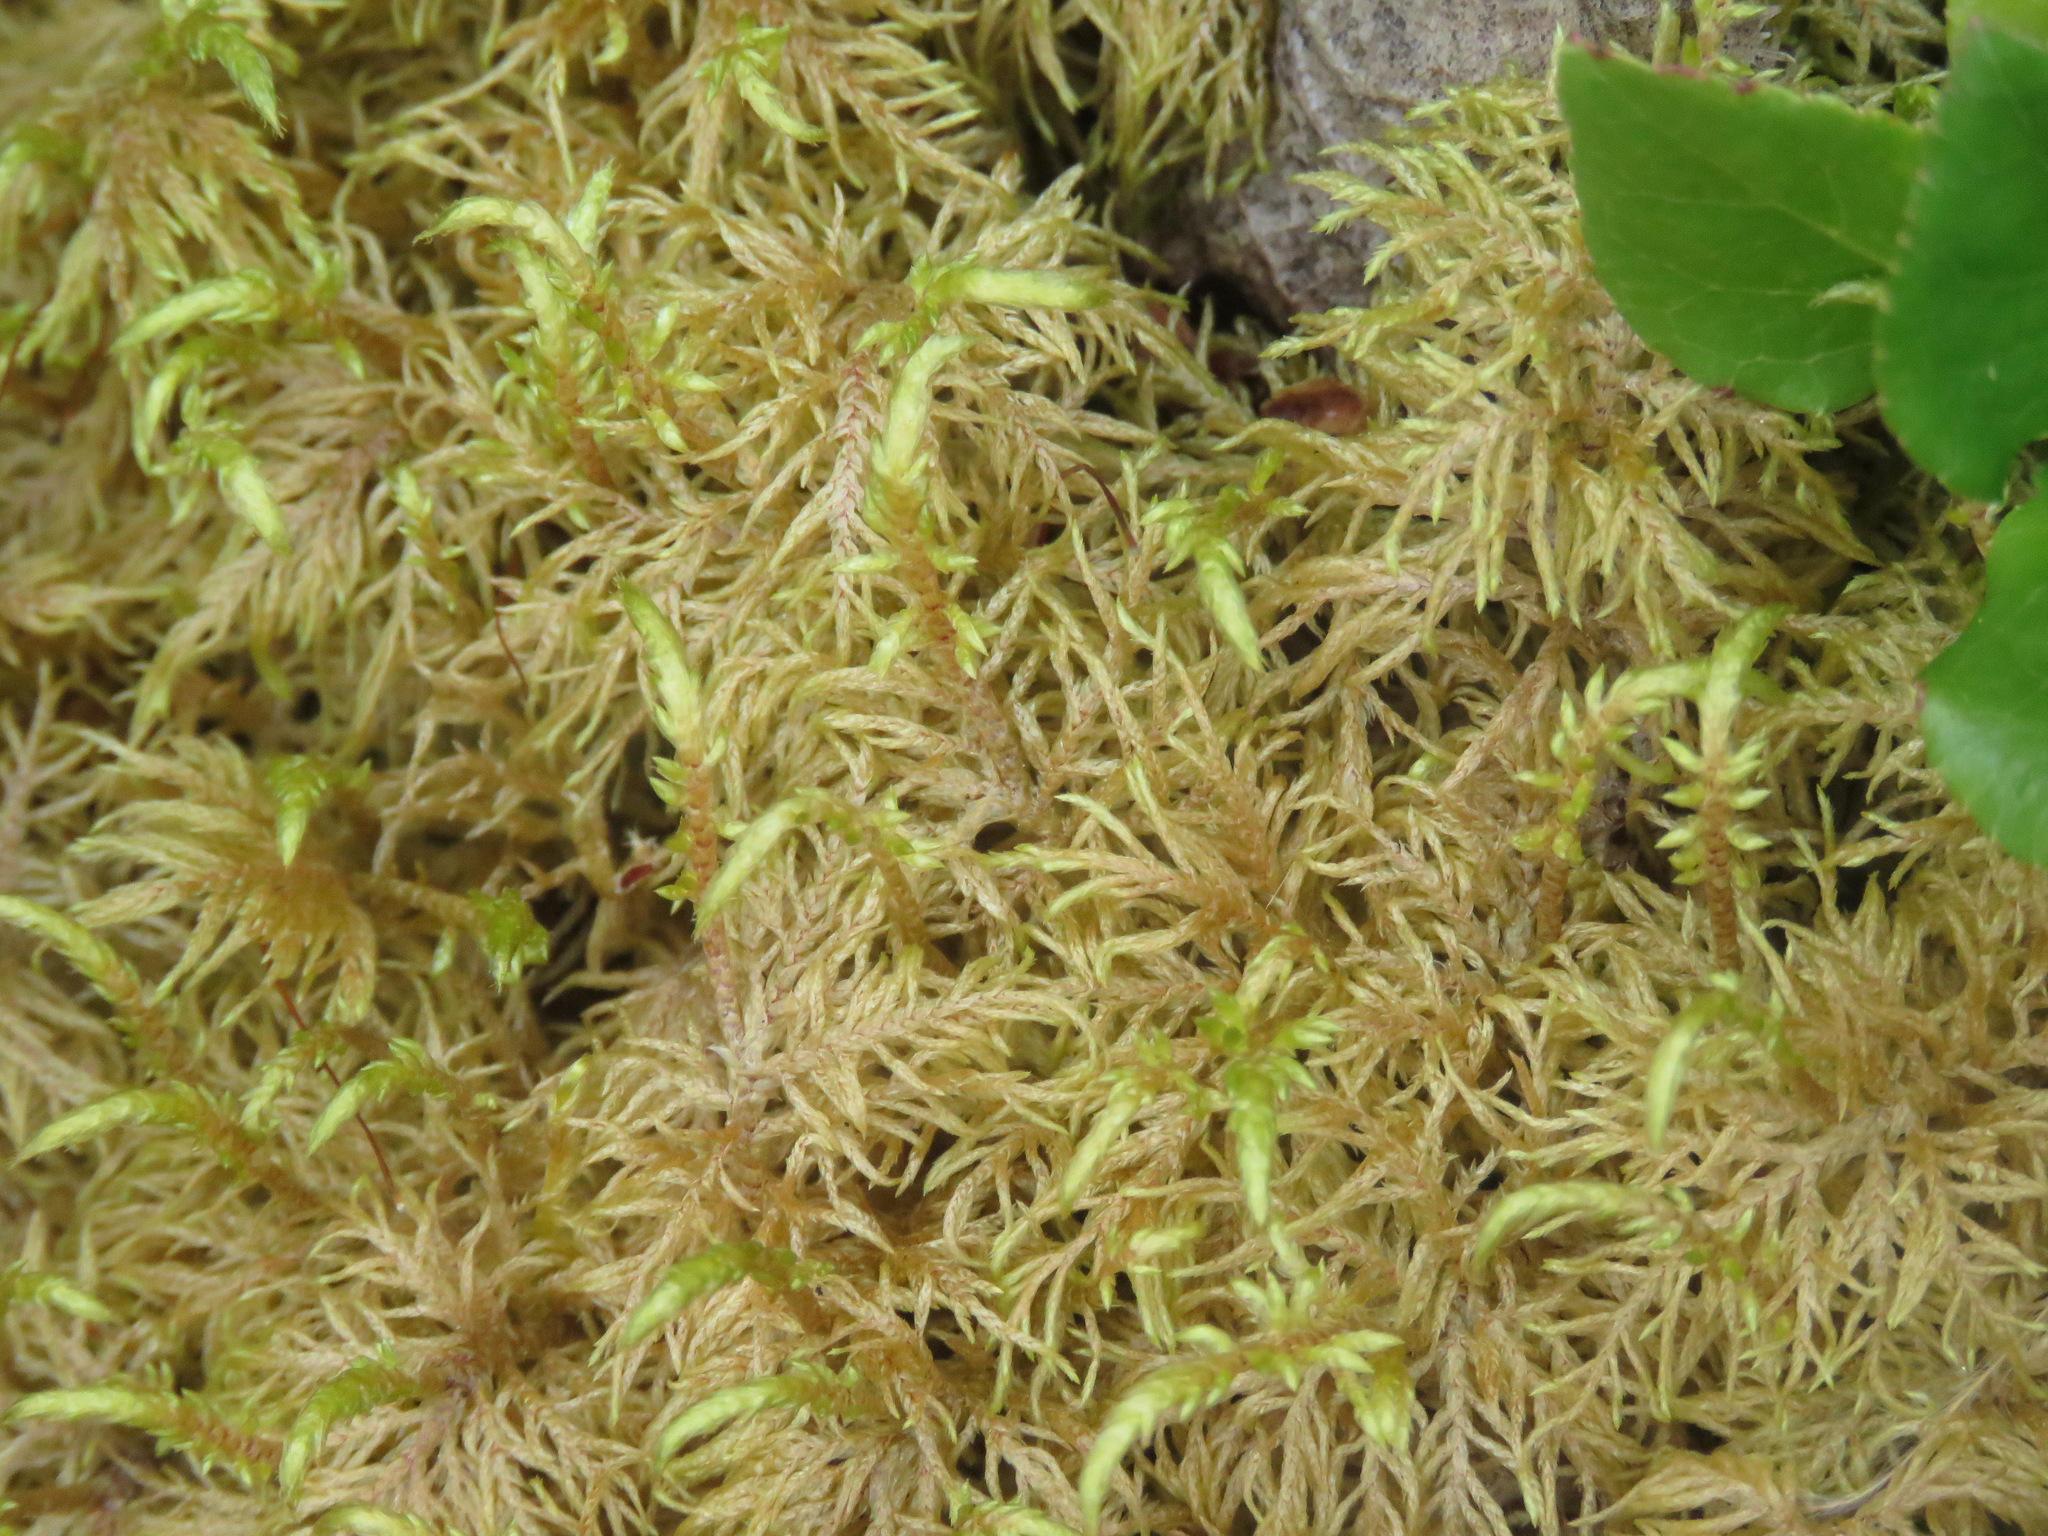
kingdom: Plantae
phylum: Bryophyta
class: Bryopsida
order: Hypnales
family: Hylocomiaceae
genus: Hylocomium
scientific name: Hylocomium splendens
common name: Stairstep moss
